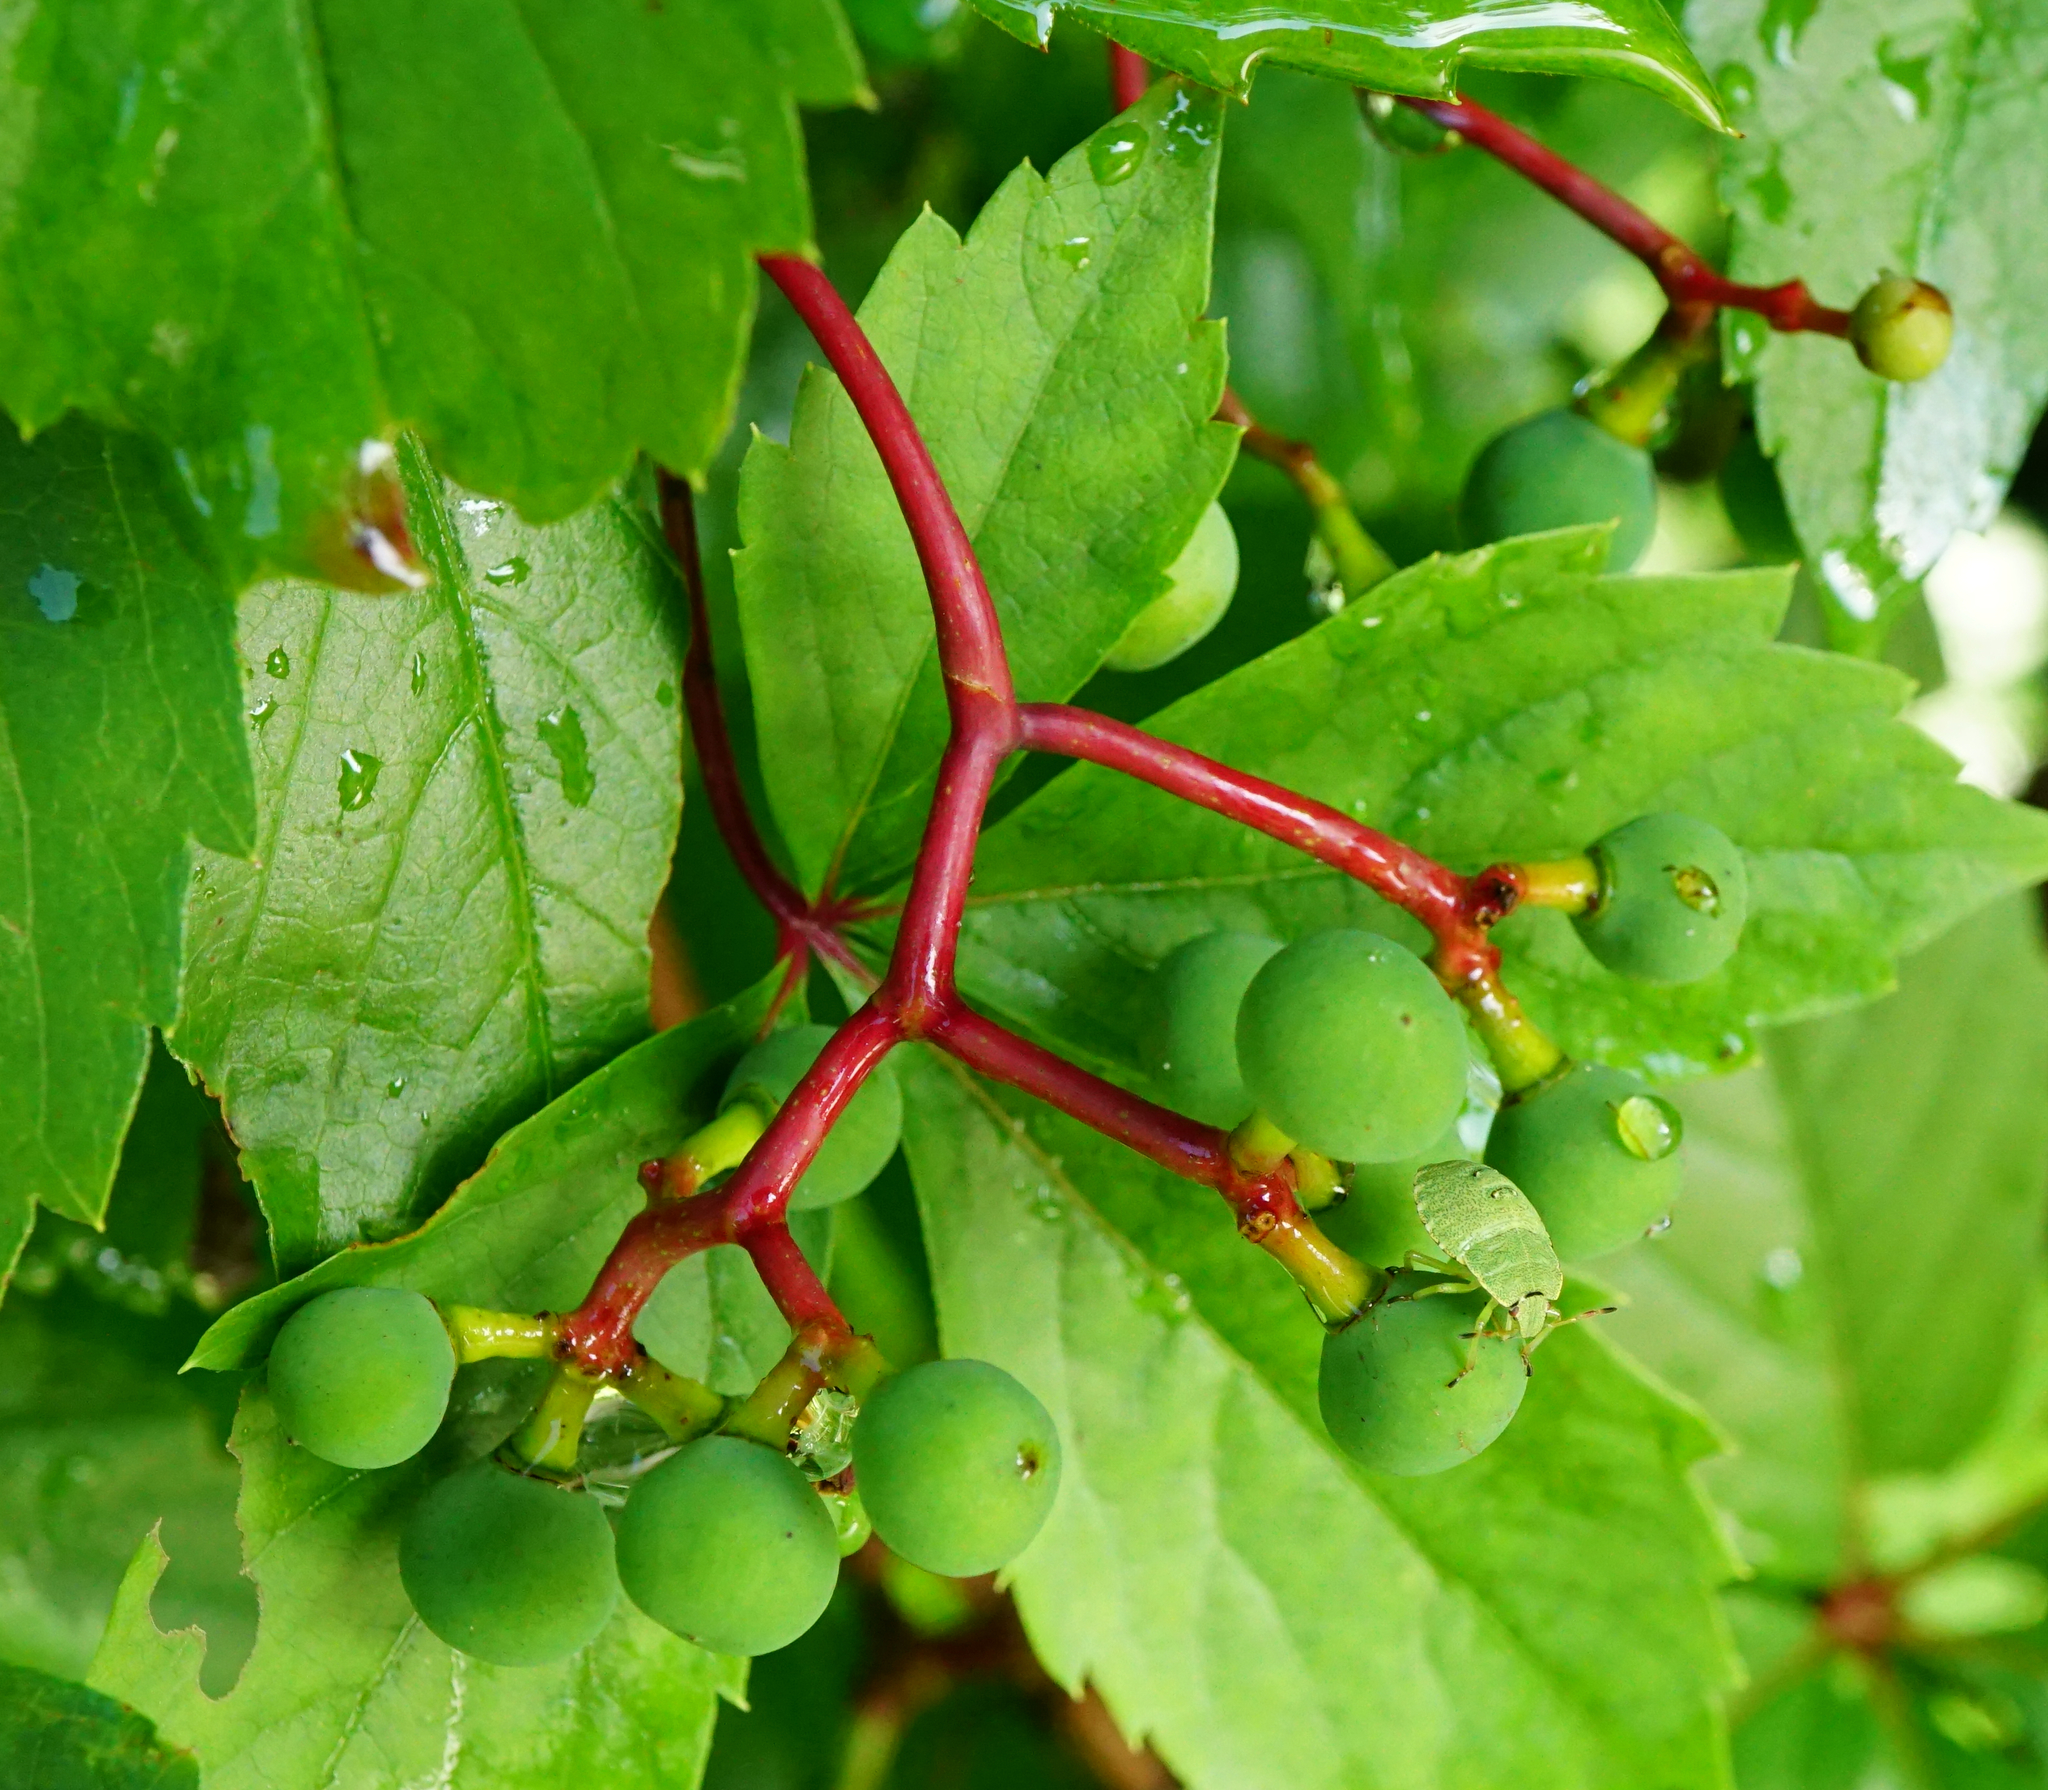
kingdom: Plantae
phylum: Tracheophyta
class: Magnoliopsida
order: Vitales
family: Vitaceae
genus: Parthenocissus
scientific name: Parthenocissus inserta
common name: False virginia-creeper
